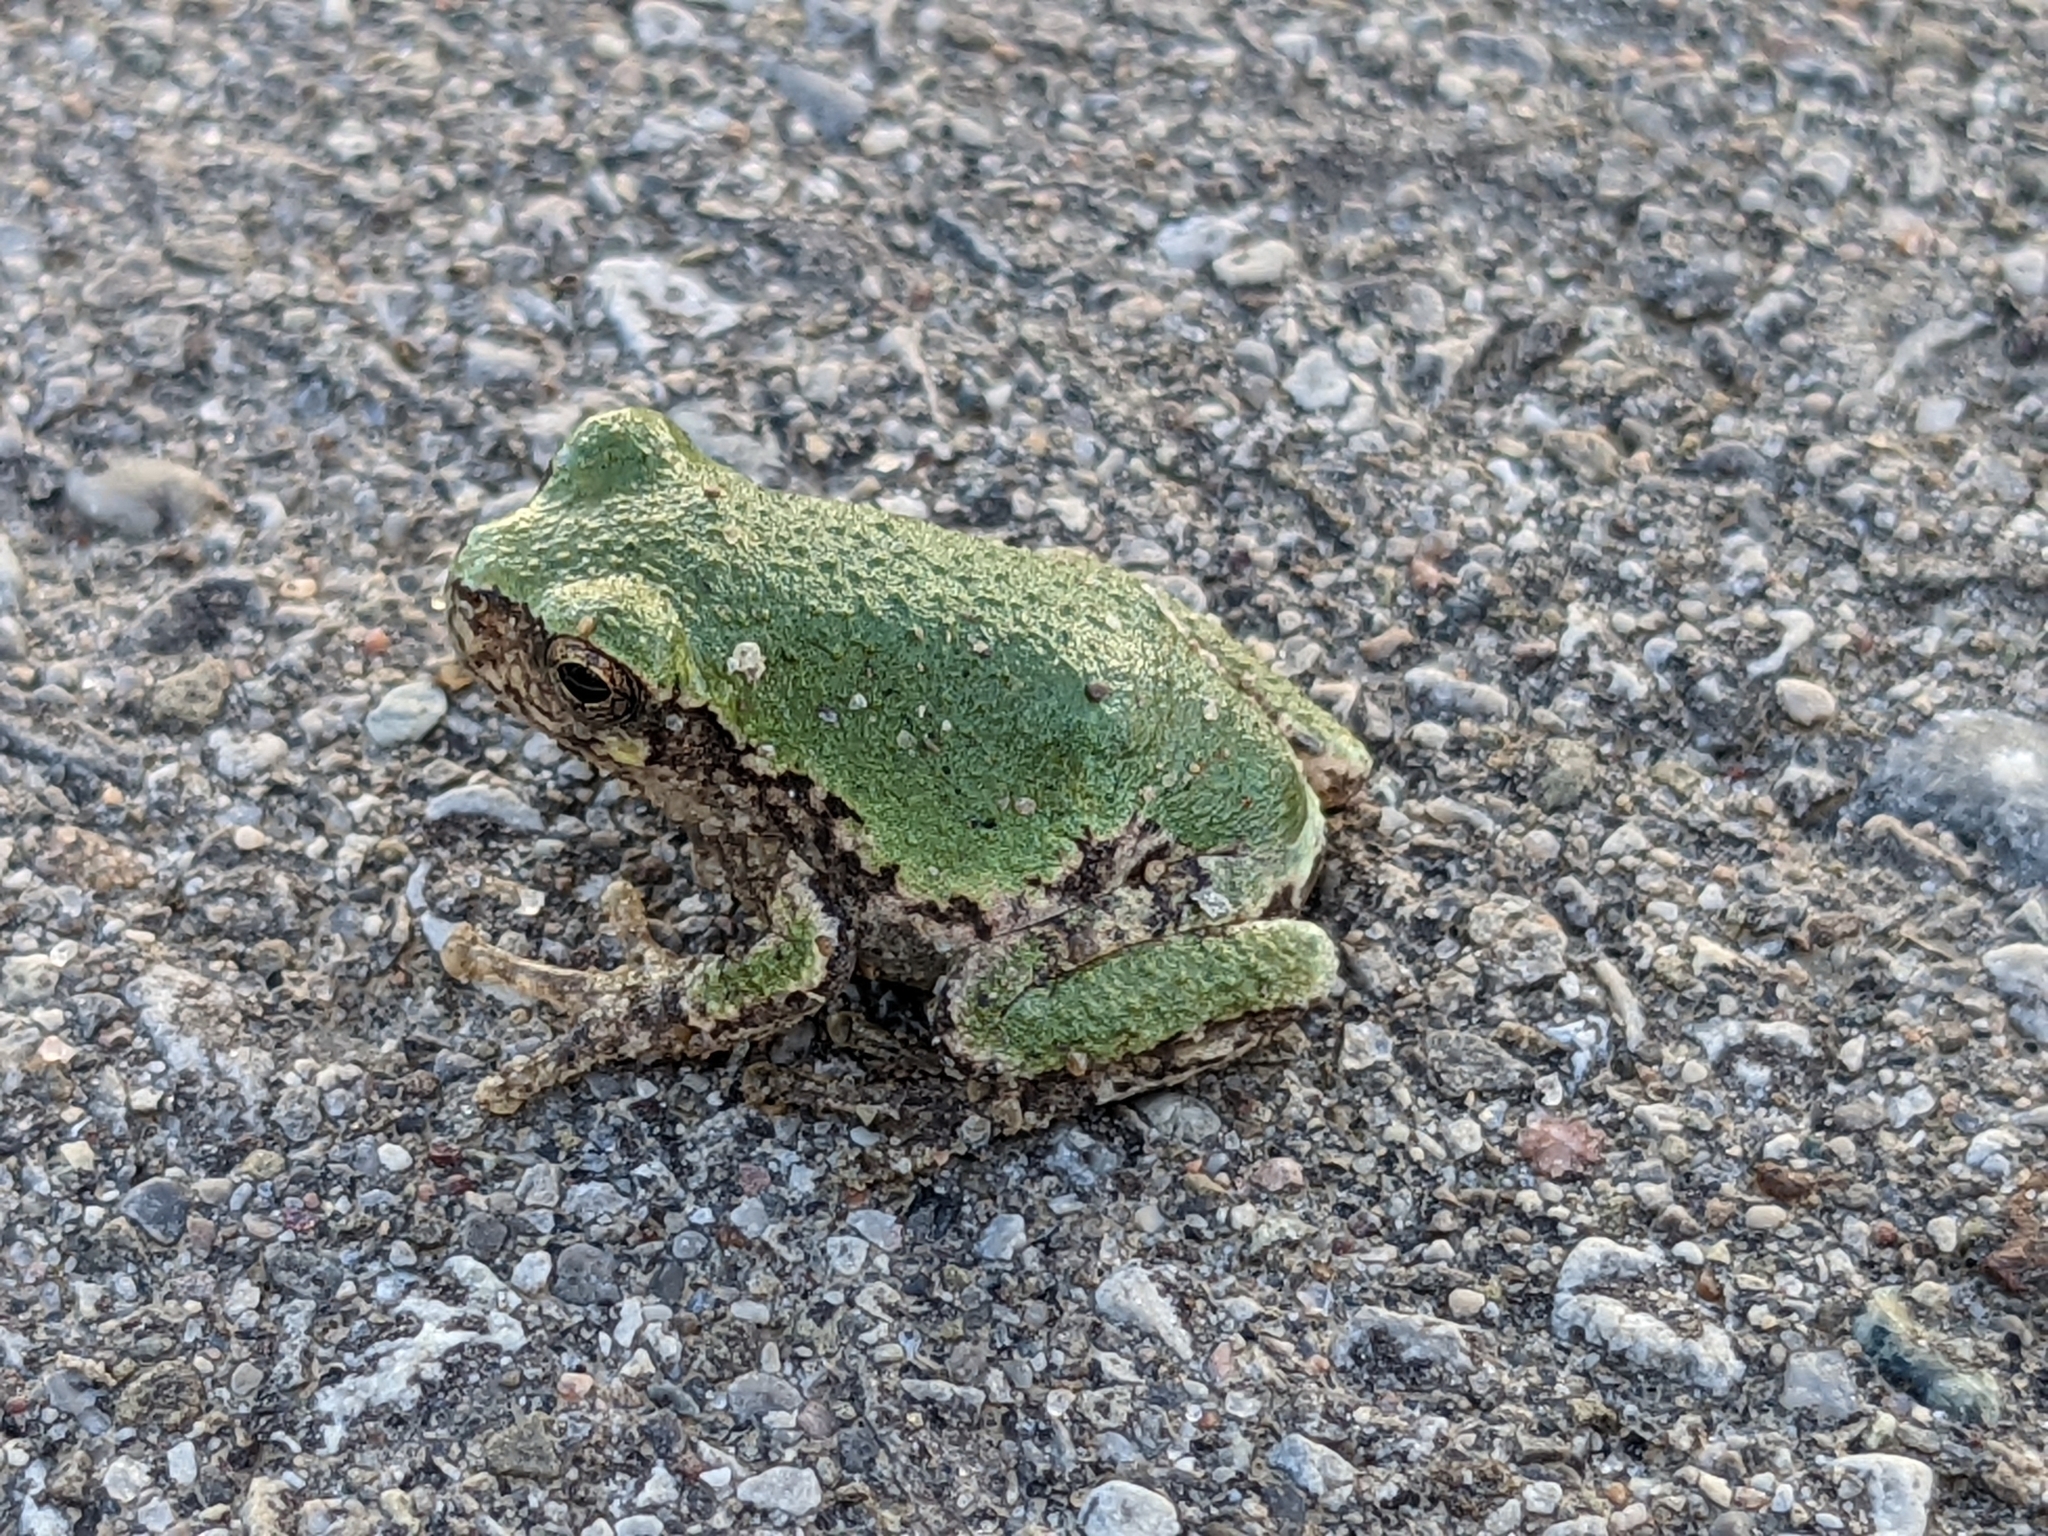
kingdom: Animalia
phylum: Chordata
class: Amphibia
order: Anura
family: Hylidae
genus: Dryophytes
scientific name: Dryophytes versicolor
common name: Gray treefrog
